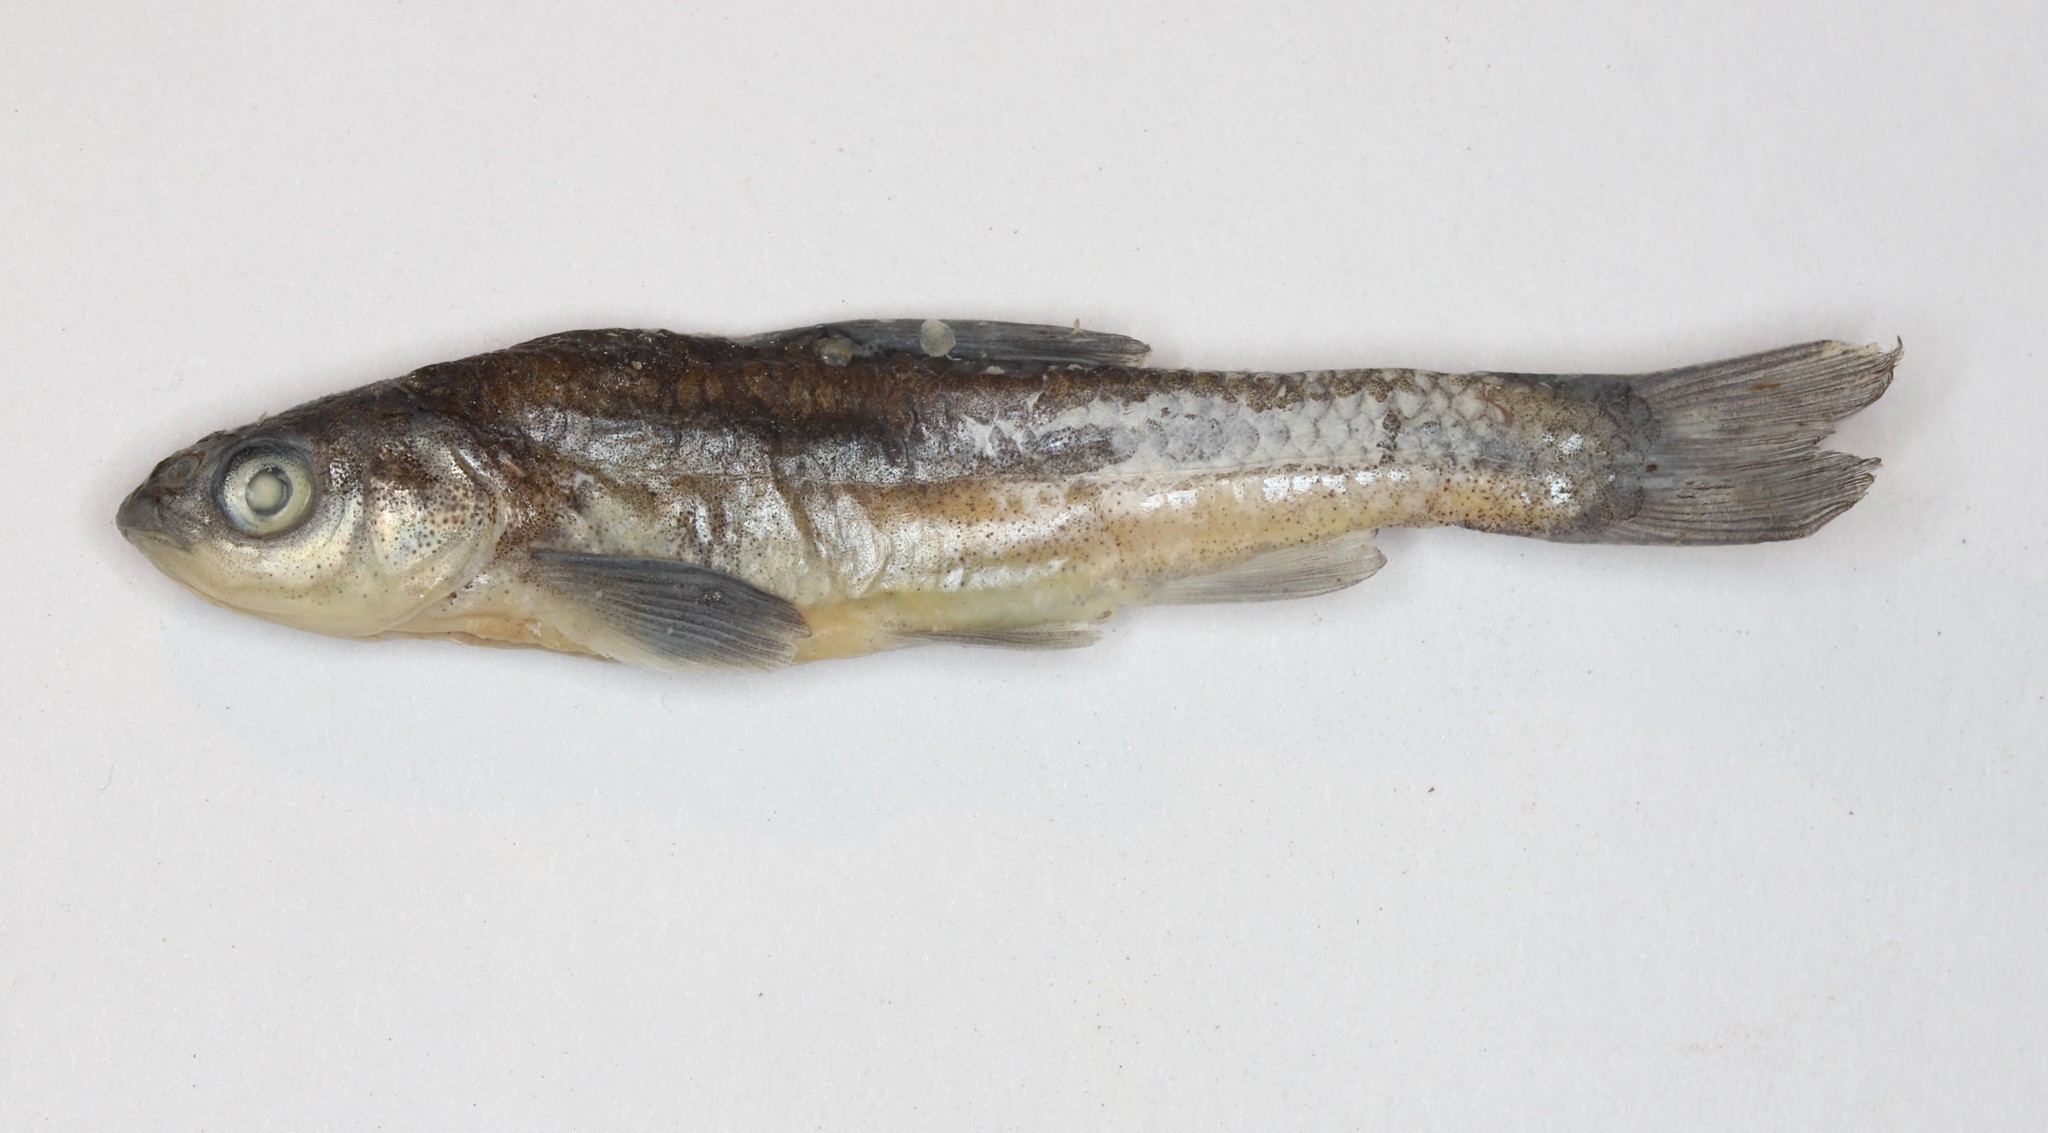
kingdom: Animalia
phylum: Chordata
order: Cypriniformes
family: Cyprinidae
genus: Hybognathus
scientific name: Hybognathus hankinsoni
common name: Brassy minnow
